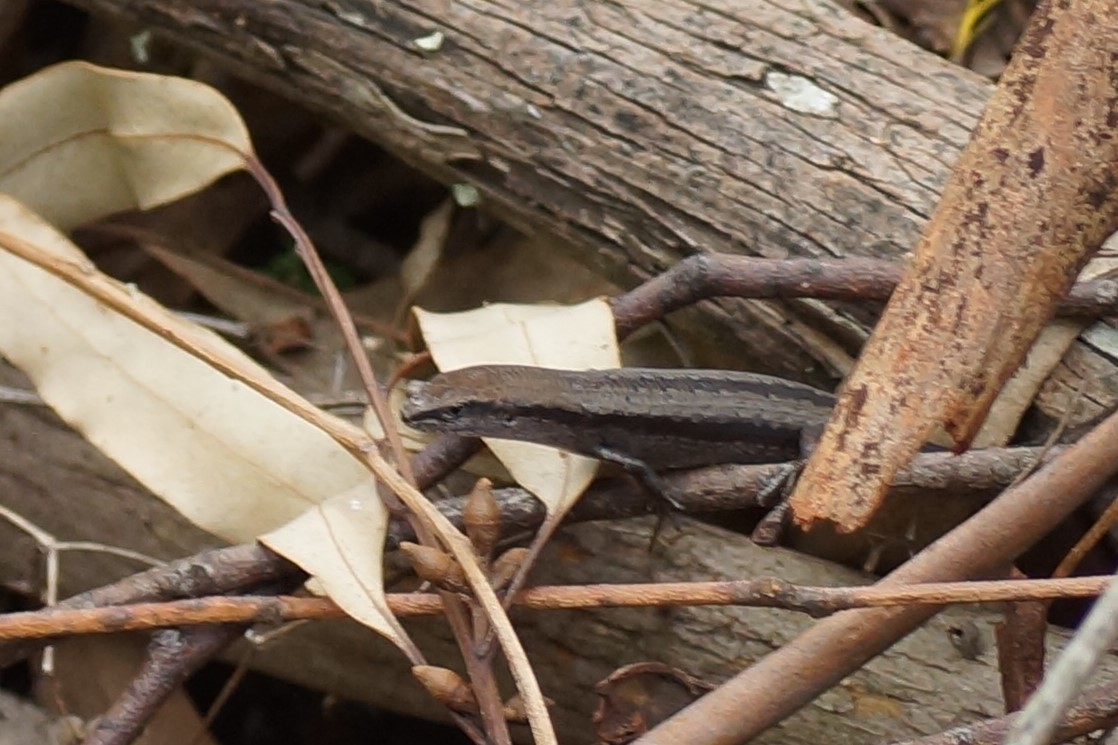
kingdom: Animalia
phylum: Chordata
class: Squamata
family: Scincidae
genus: Lampropholis
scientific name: Lampropholis guichenoti
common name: Garden skink
